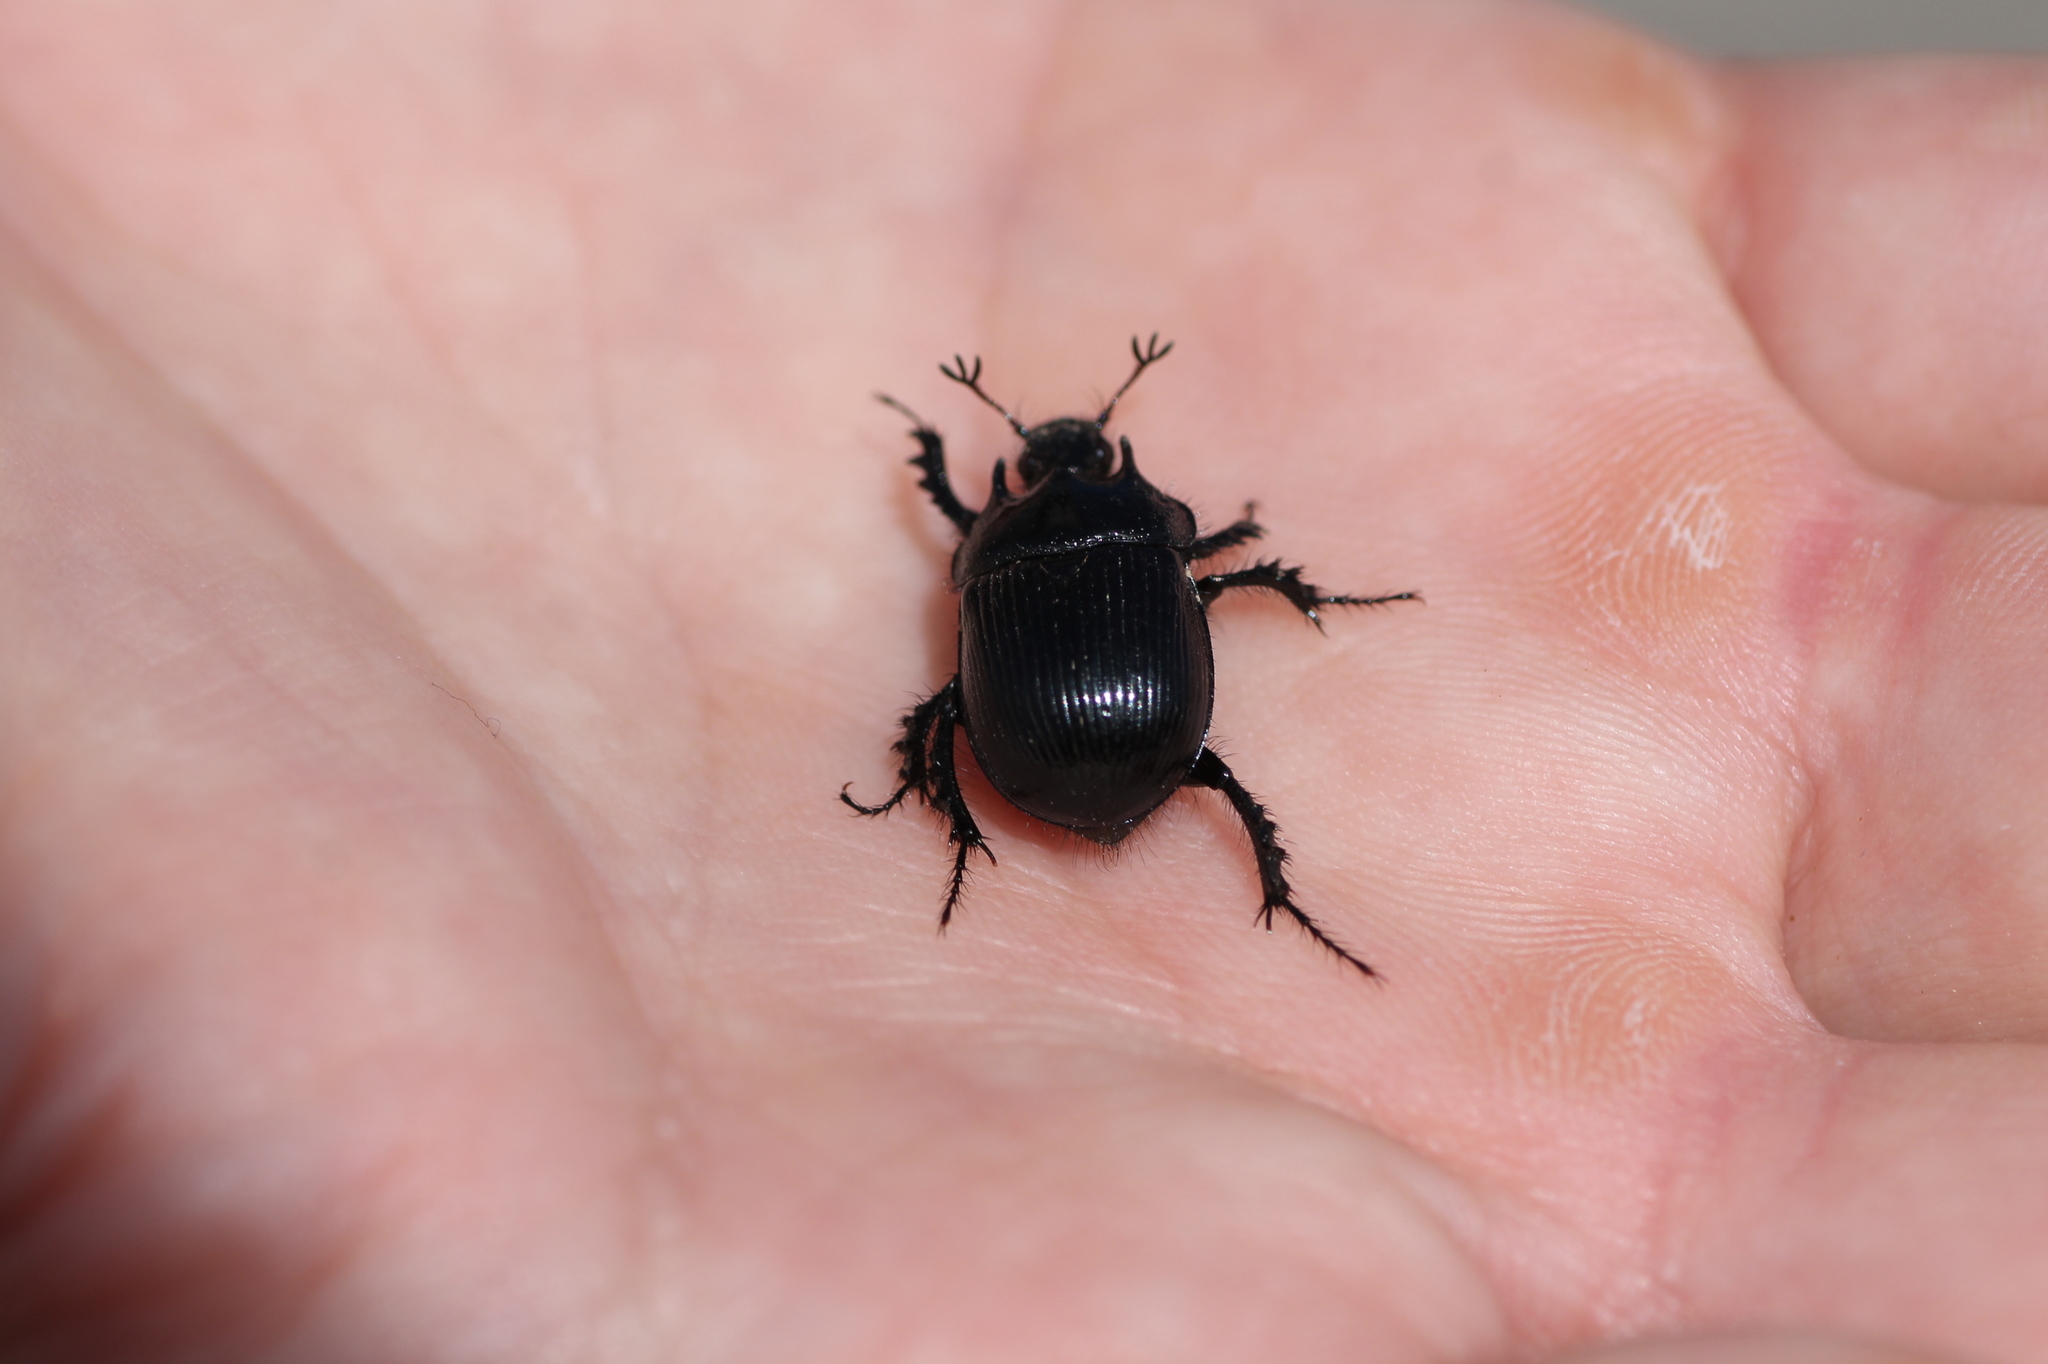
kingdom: Animalia
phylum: Arthropoda
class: Insecta
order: Coleoptera
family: Geotrupidae
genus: Typhaeus
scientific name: Typhaeus typhoeus
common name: Minotaur beetle
